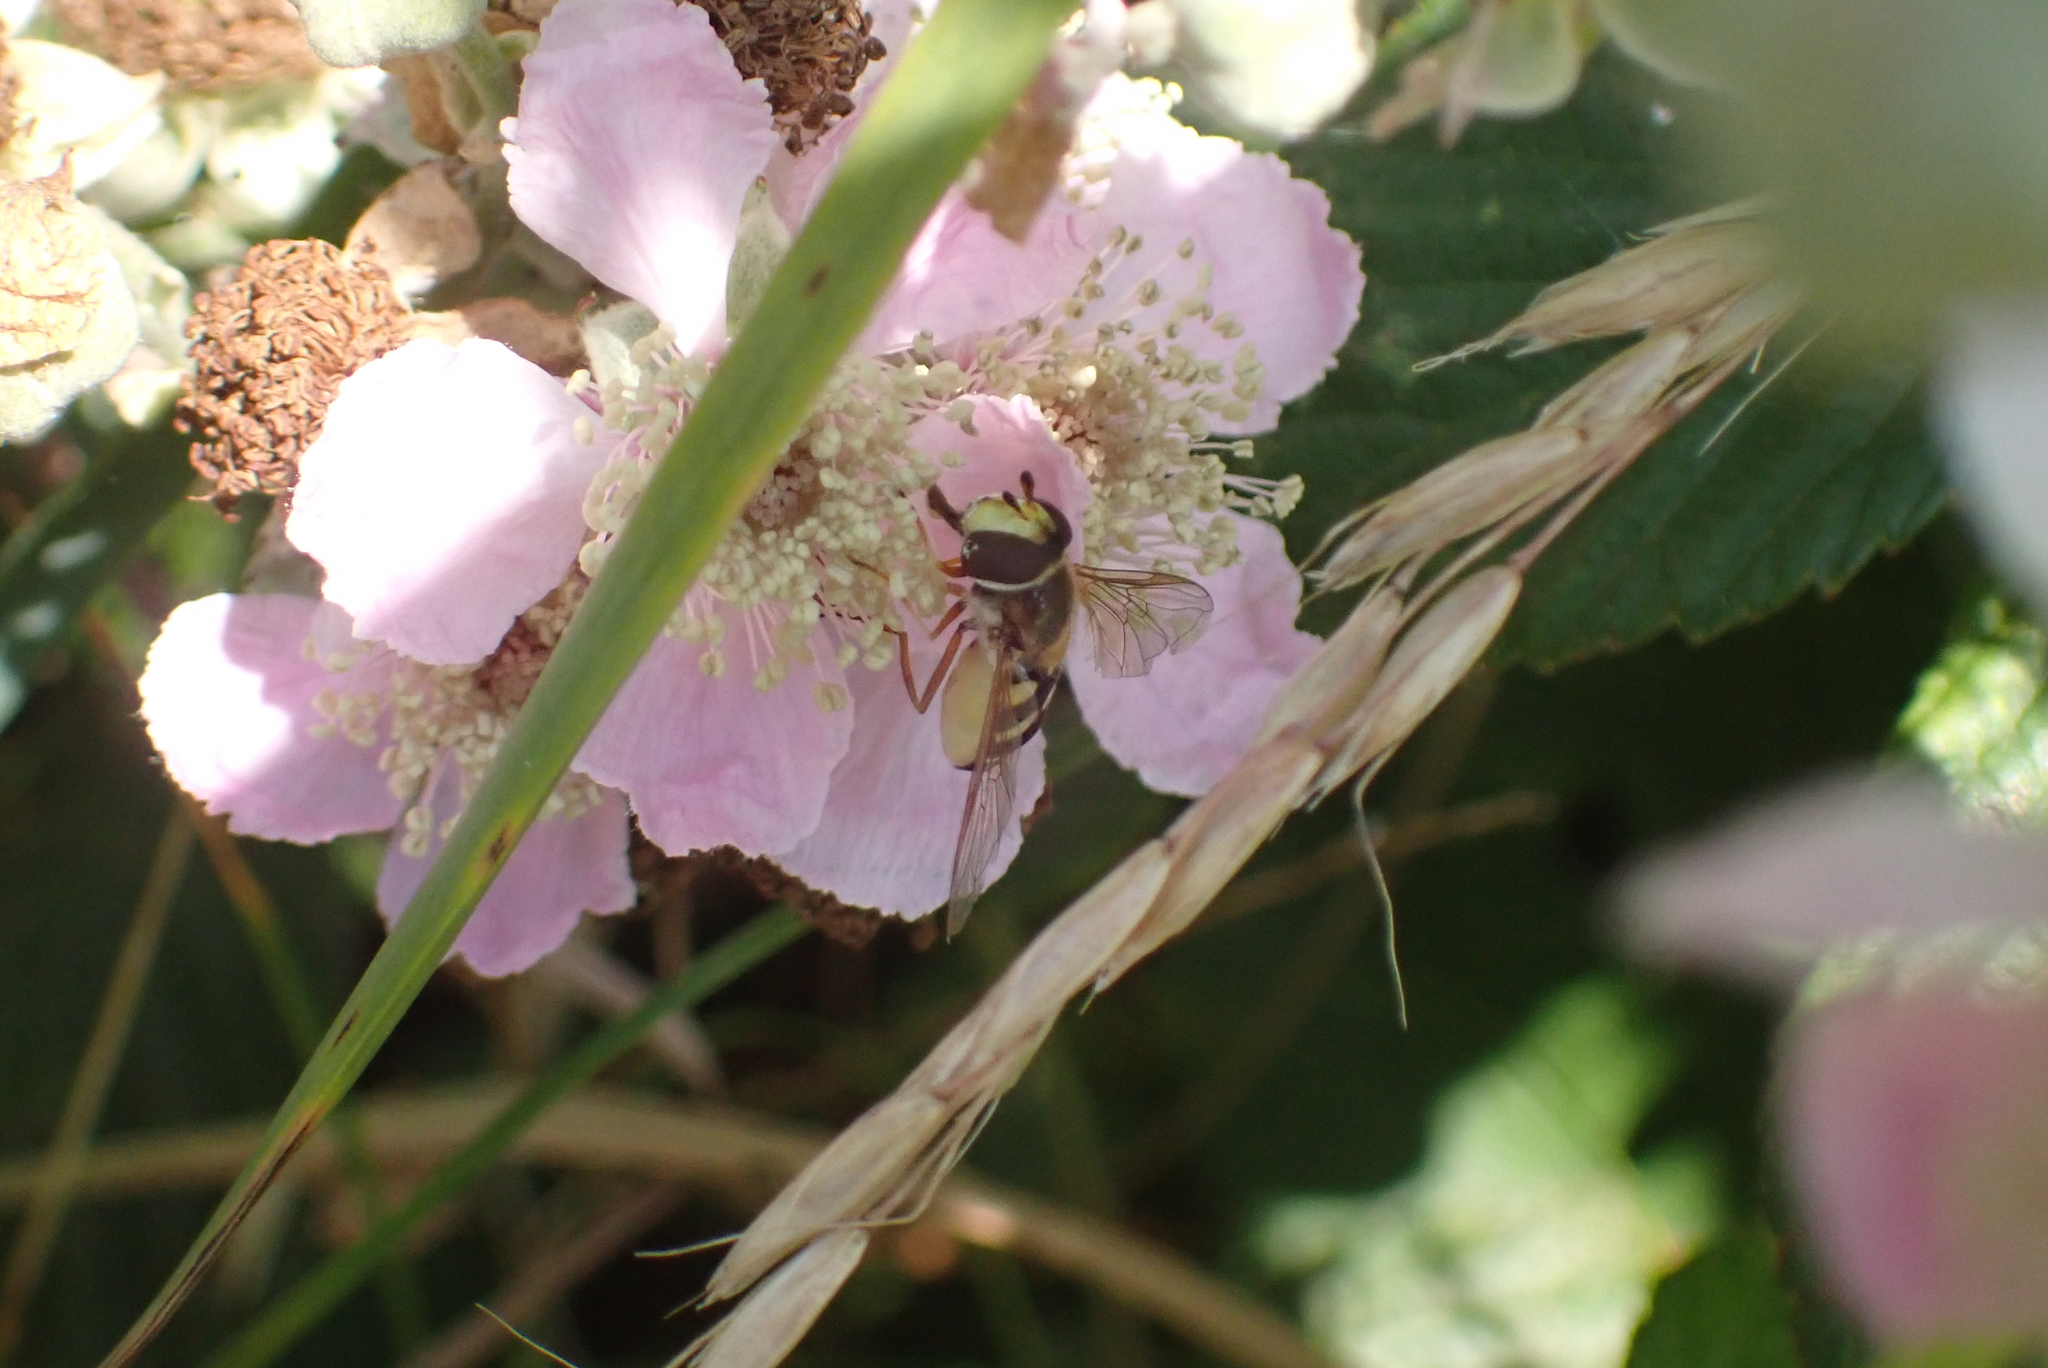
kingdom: Animalia
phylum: Arthropoda
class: Insecta
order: Diptera
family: Syrphidae
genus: Eupeodes
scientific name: Eupeodes corollae
